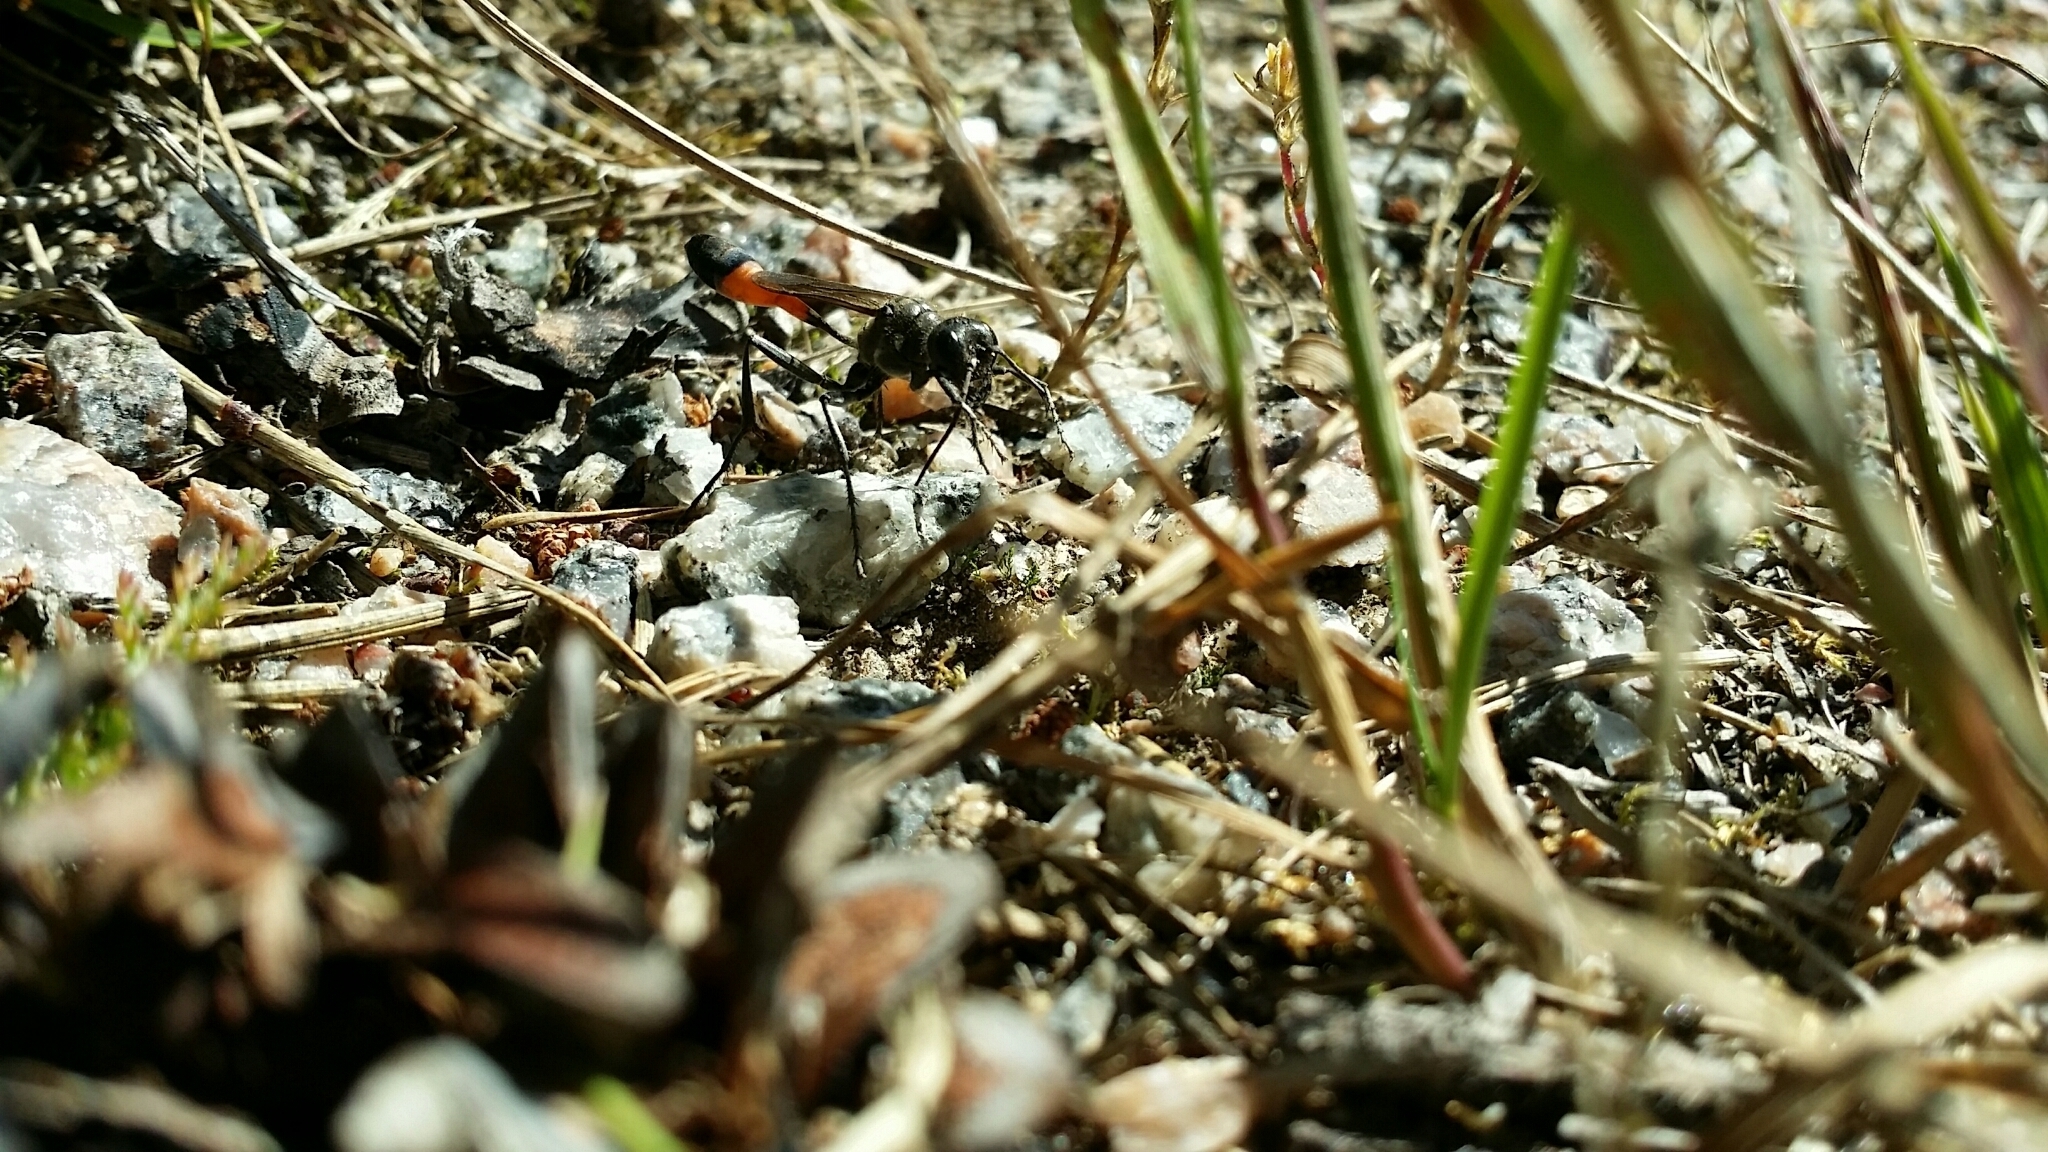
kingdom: Animalia
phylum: Arthropoda
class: Insecta
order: Hymenoptera
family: Sphecidae
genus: Ammophila
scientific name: Ammophila
